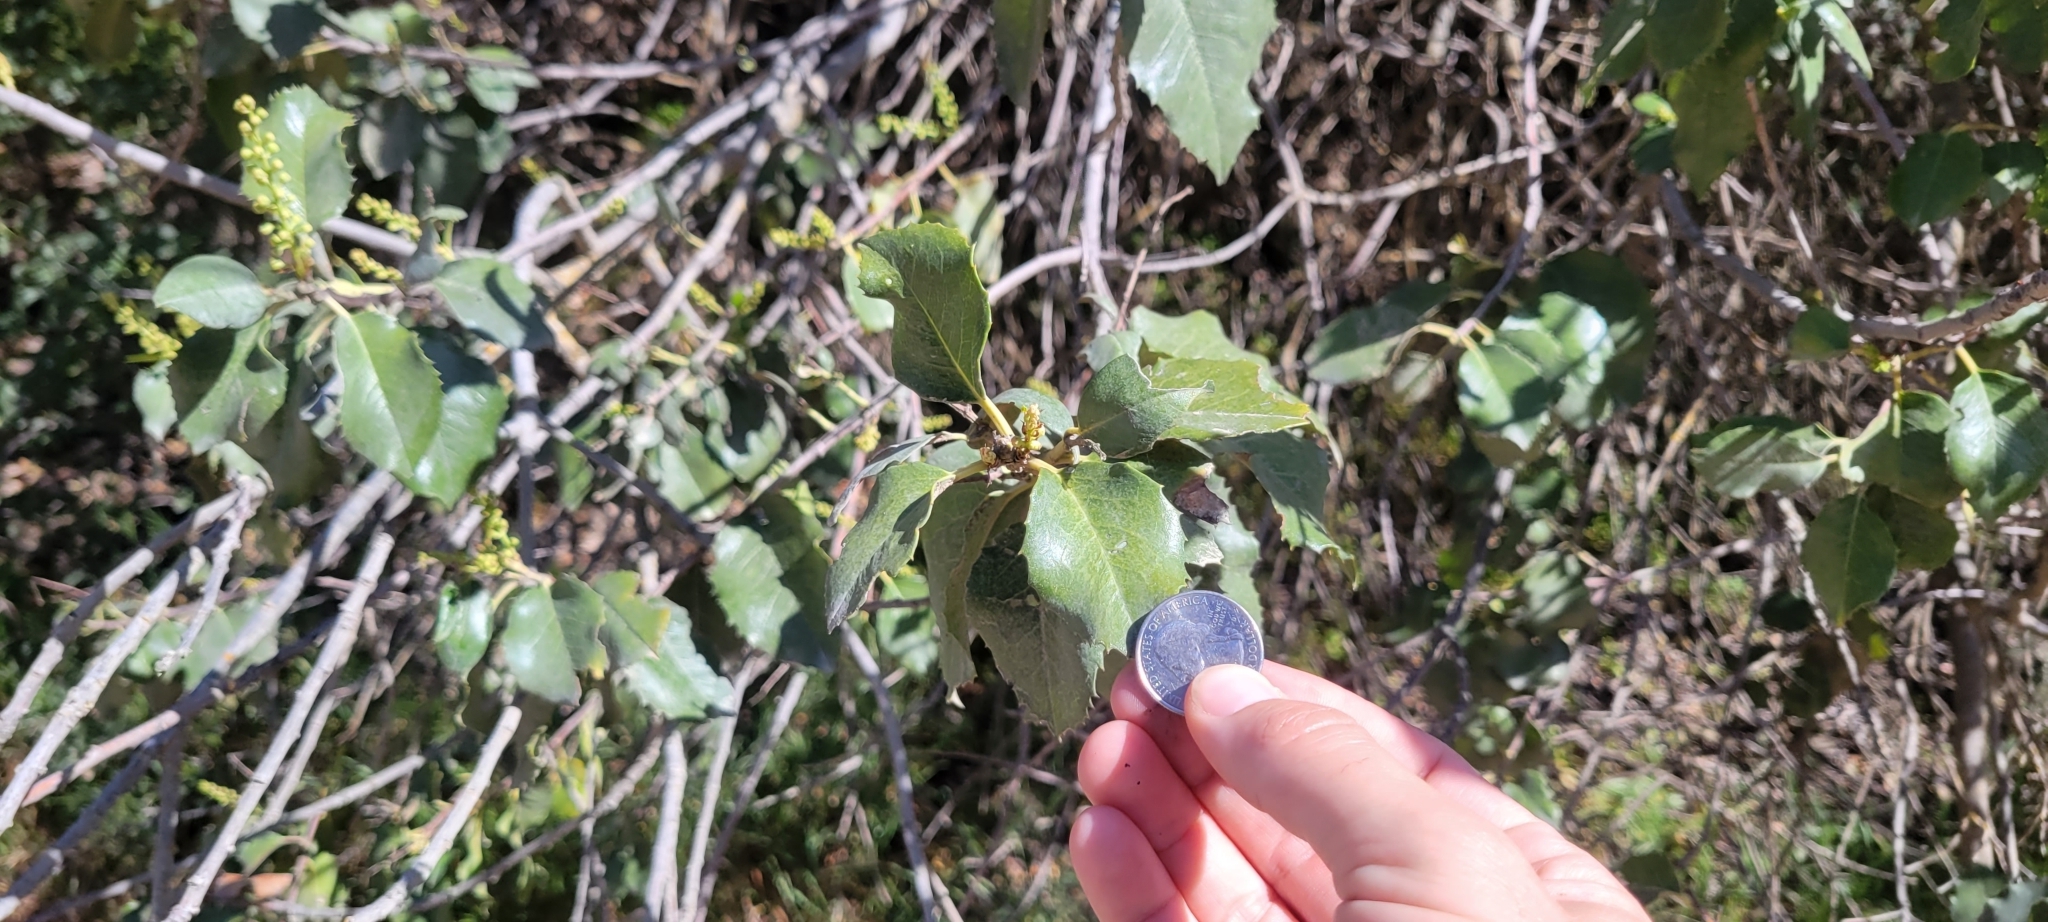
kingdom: Plantae
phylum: Tracheophyta
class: Magnoliopsida
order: Rosales
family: Rosaceae
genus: Prunus
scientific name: Prunus ilicifolia
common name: Hollyleaf cherry
